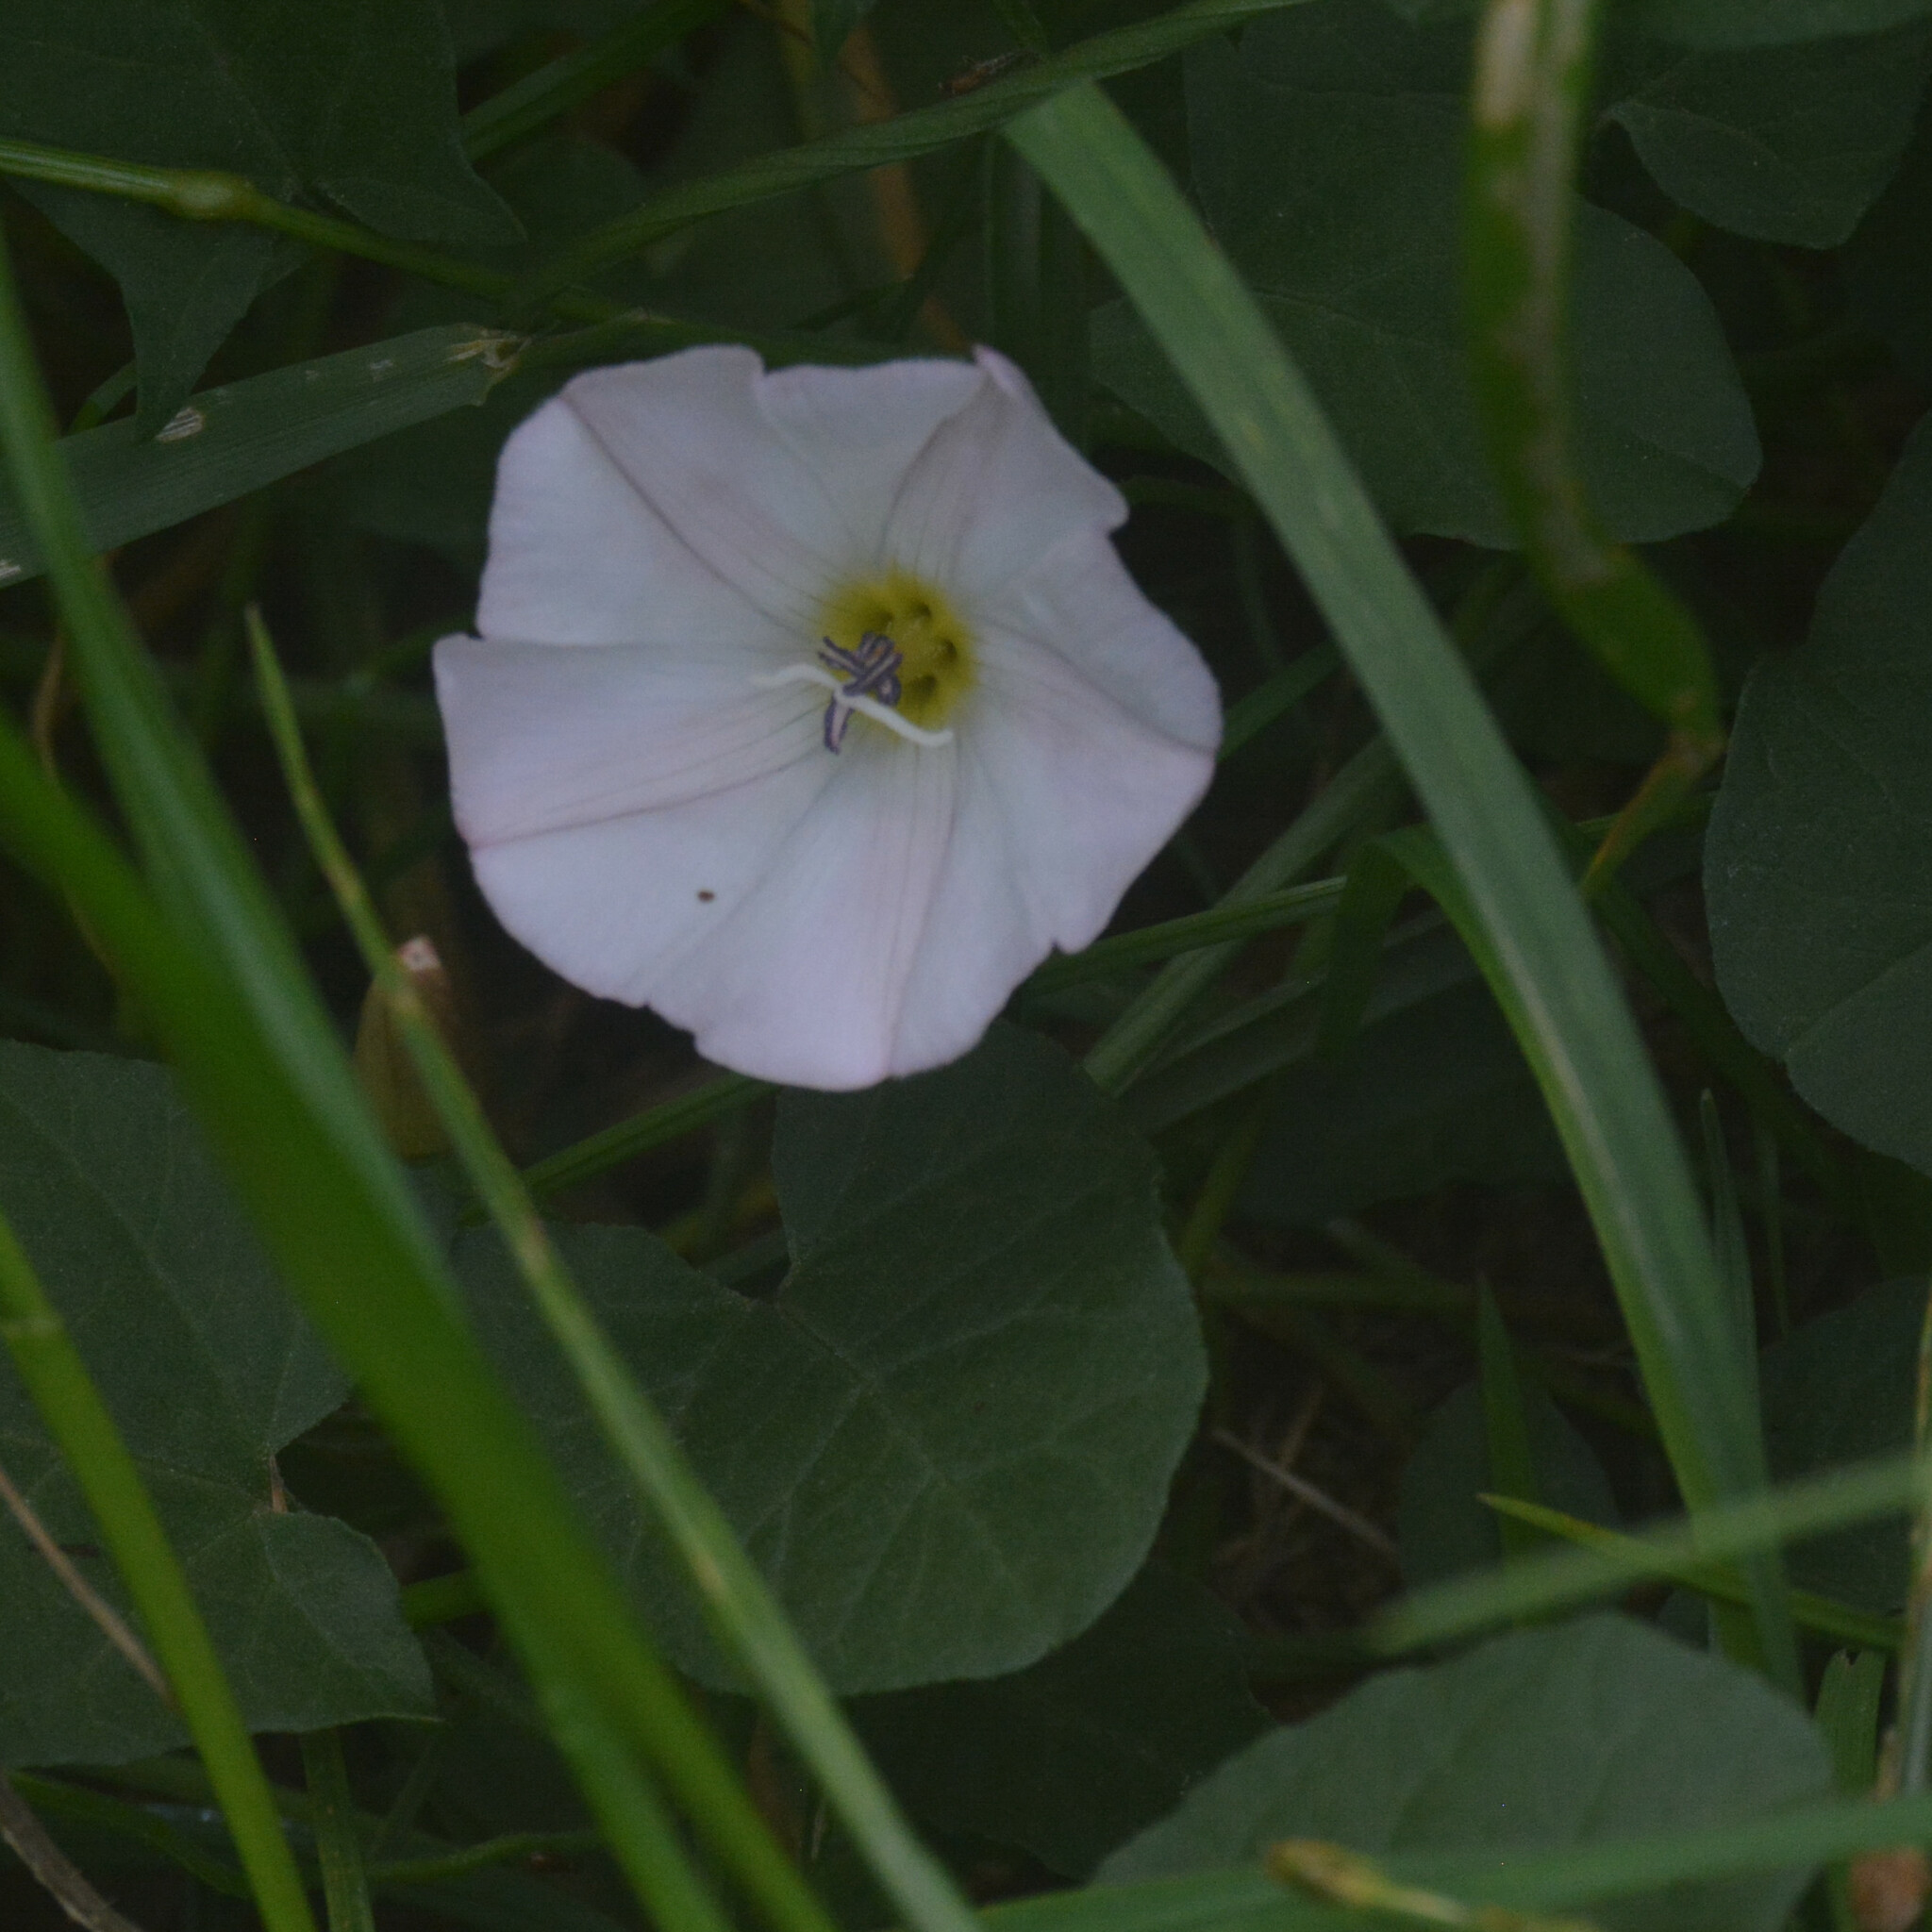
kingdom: Plantae
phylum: Tracheophyta
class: Magnoliopsida
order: Solanales
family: Convolvulaceae
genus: Convolvulus
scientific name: Convolvulus arvensis
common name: Field bindweed
